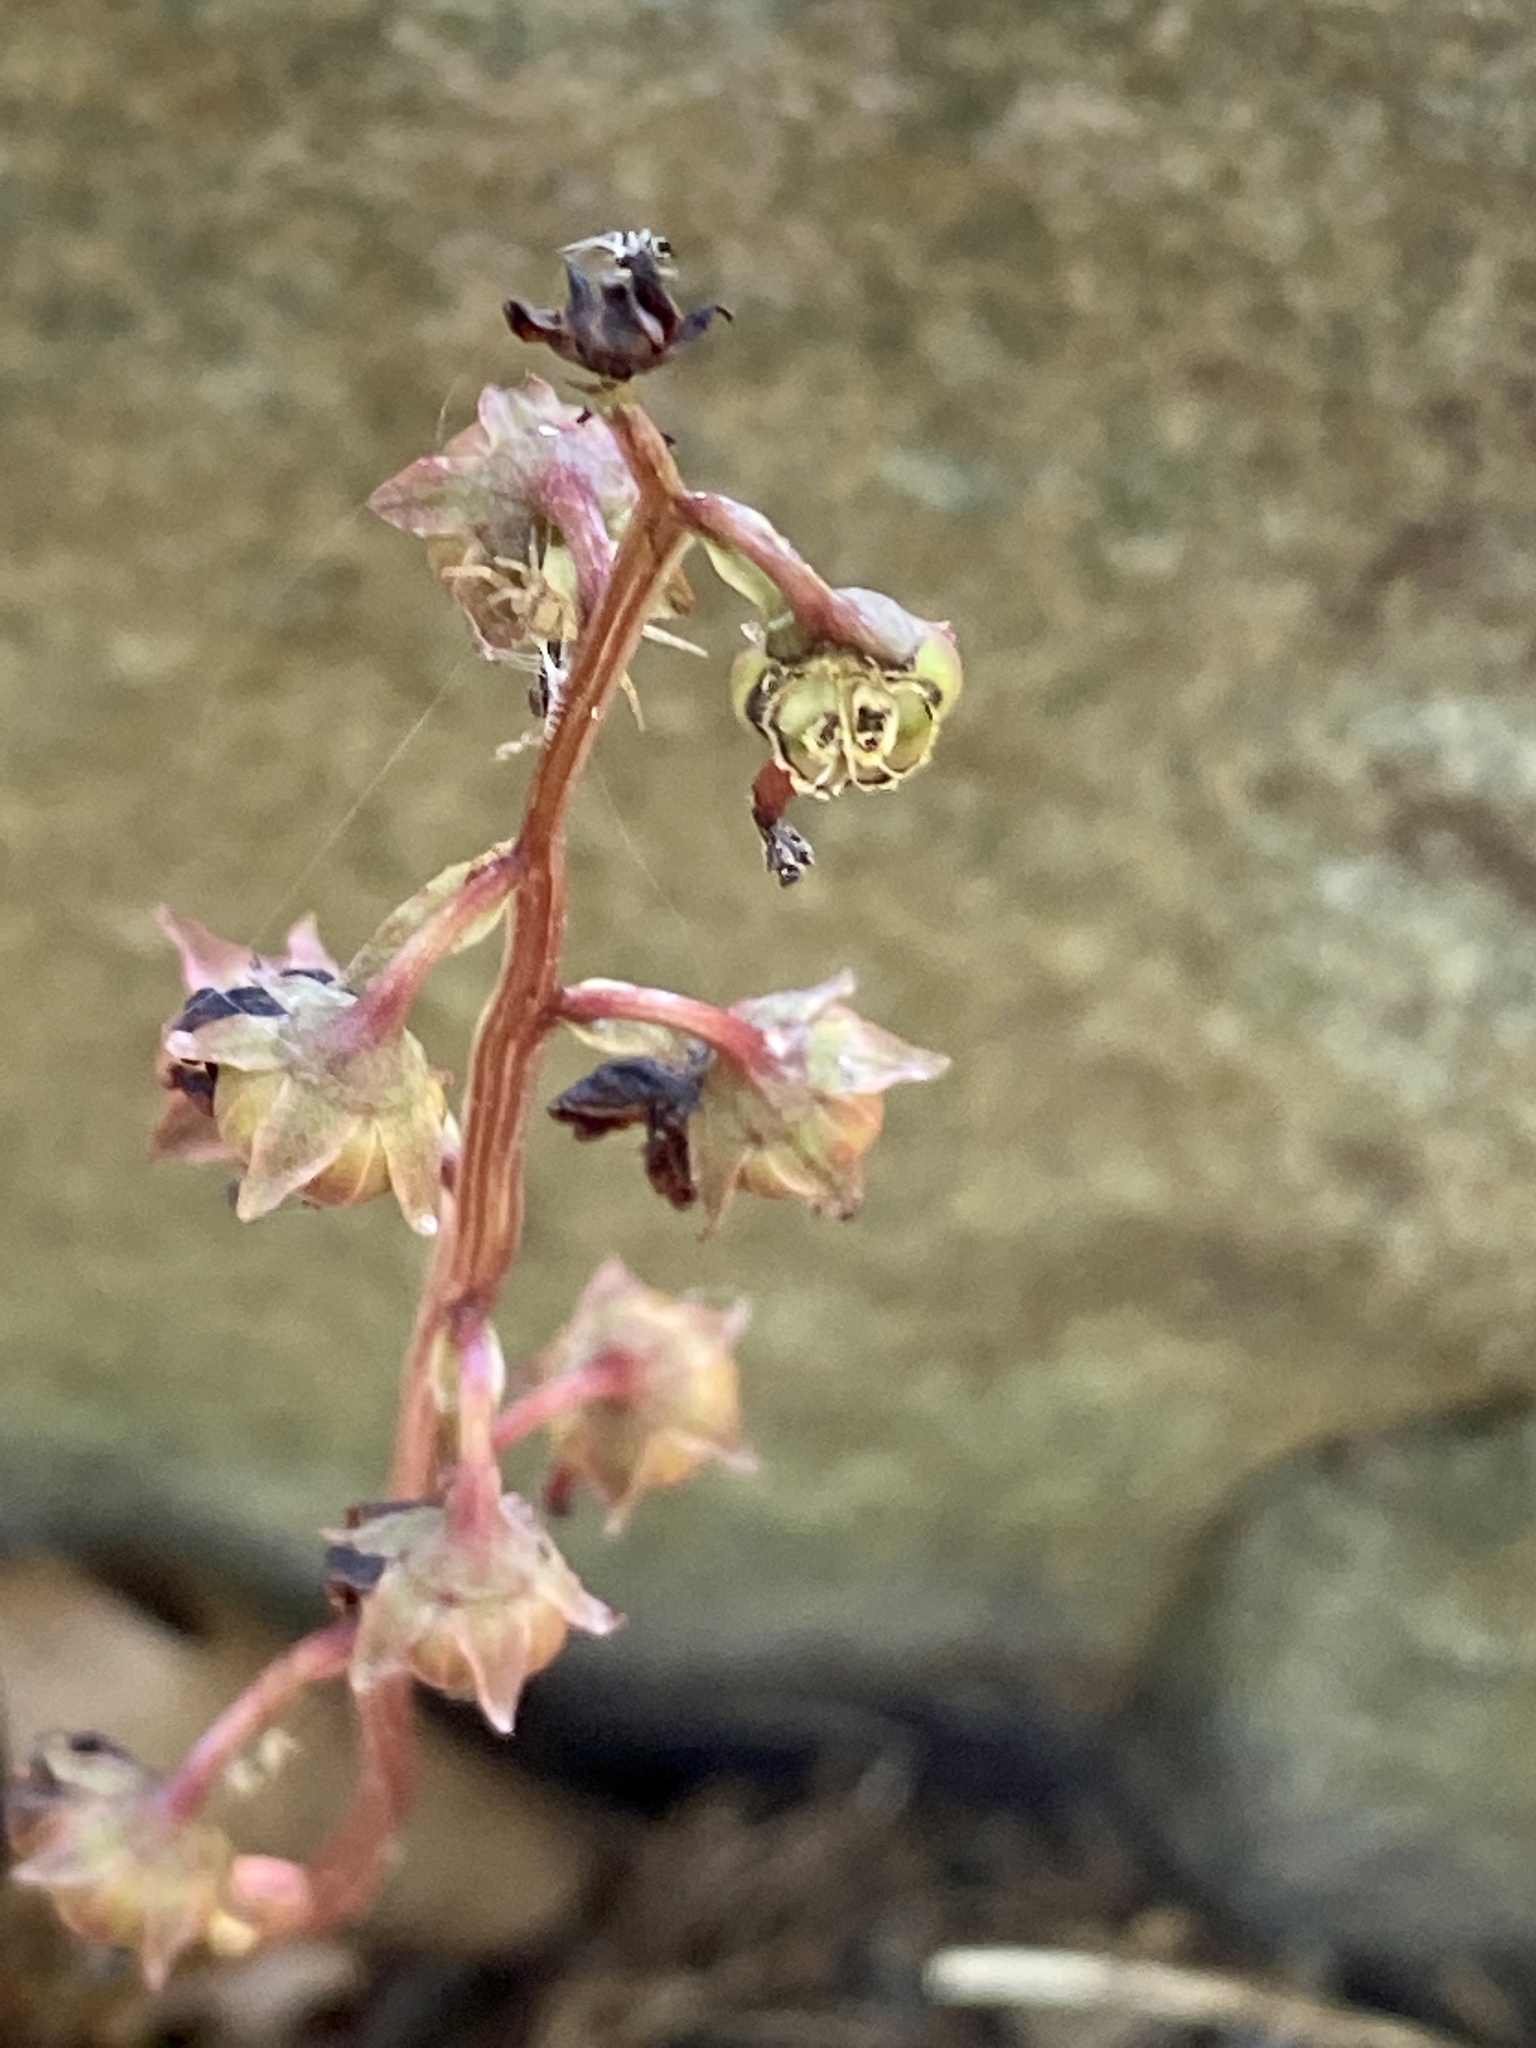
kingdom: Plantae
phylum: Tracheophyta
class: Magnoliopsida
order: Ericales
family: Ericaceae
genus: Pyrola
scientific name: Pyrola americana
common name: American wintergreen
